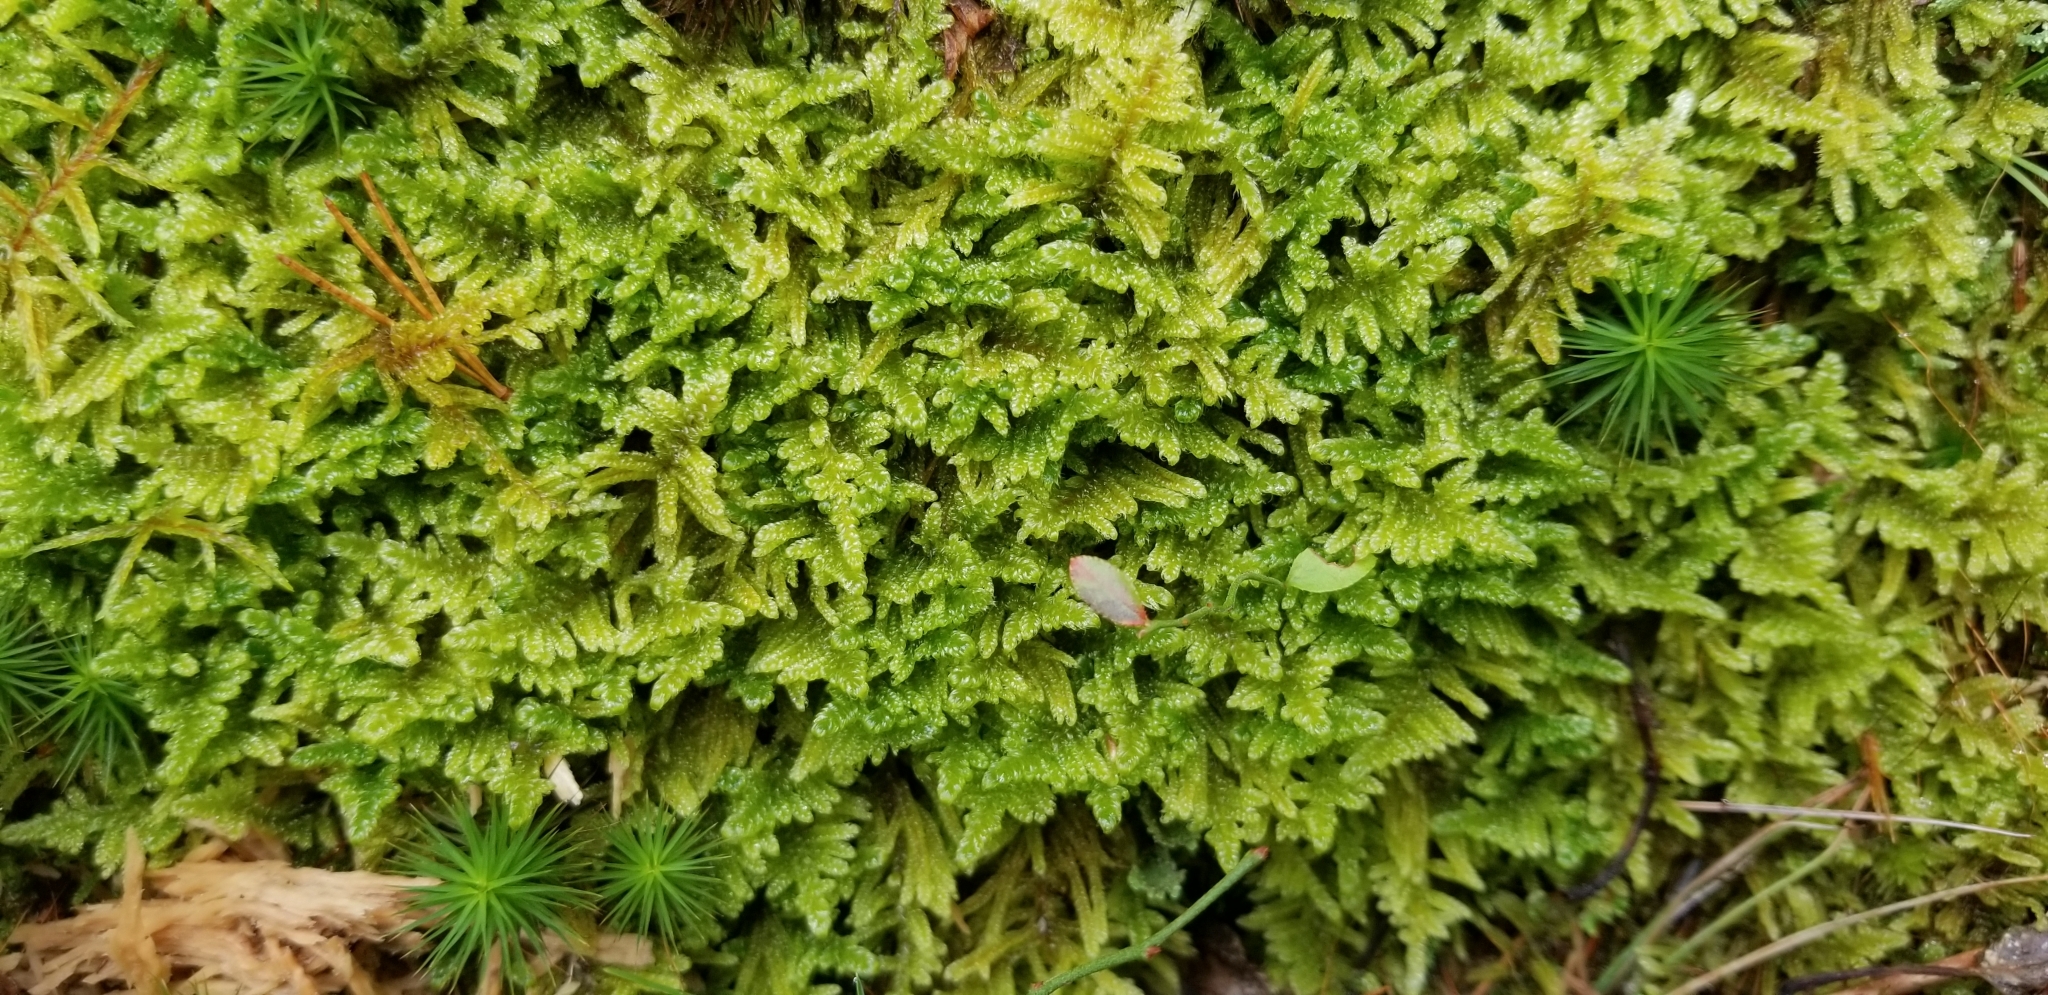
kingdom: Plantae
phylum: Bryophyta
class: Bryopsida
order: Hypnales
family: Callicladiaceae
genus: Callicladium
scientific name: Callicladium imponens
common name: Brocade moss
